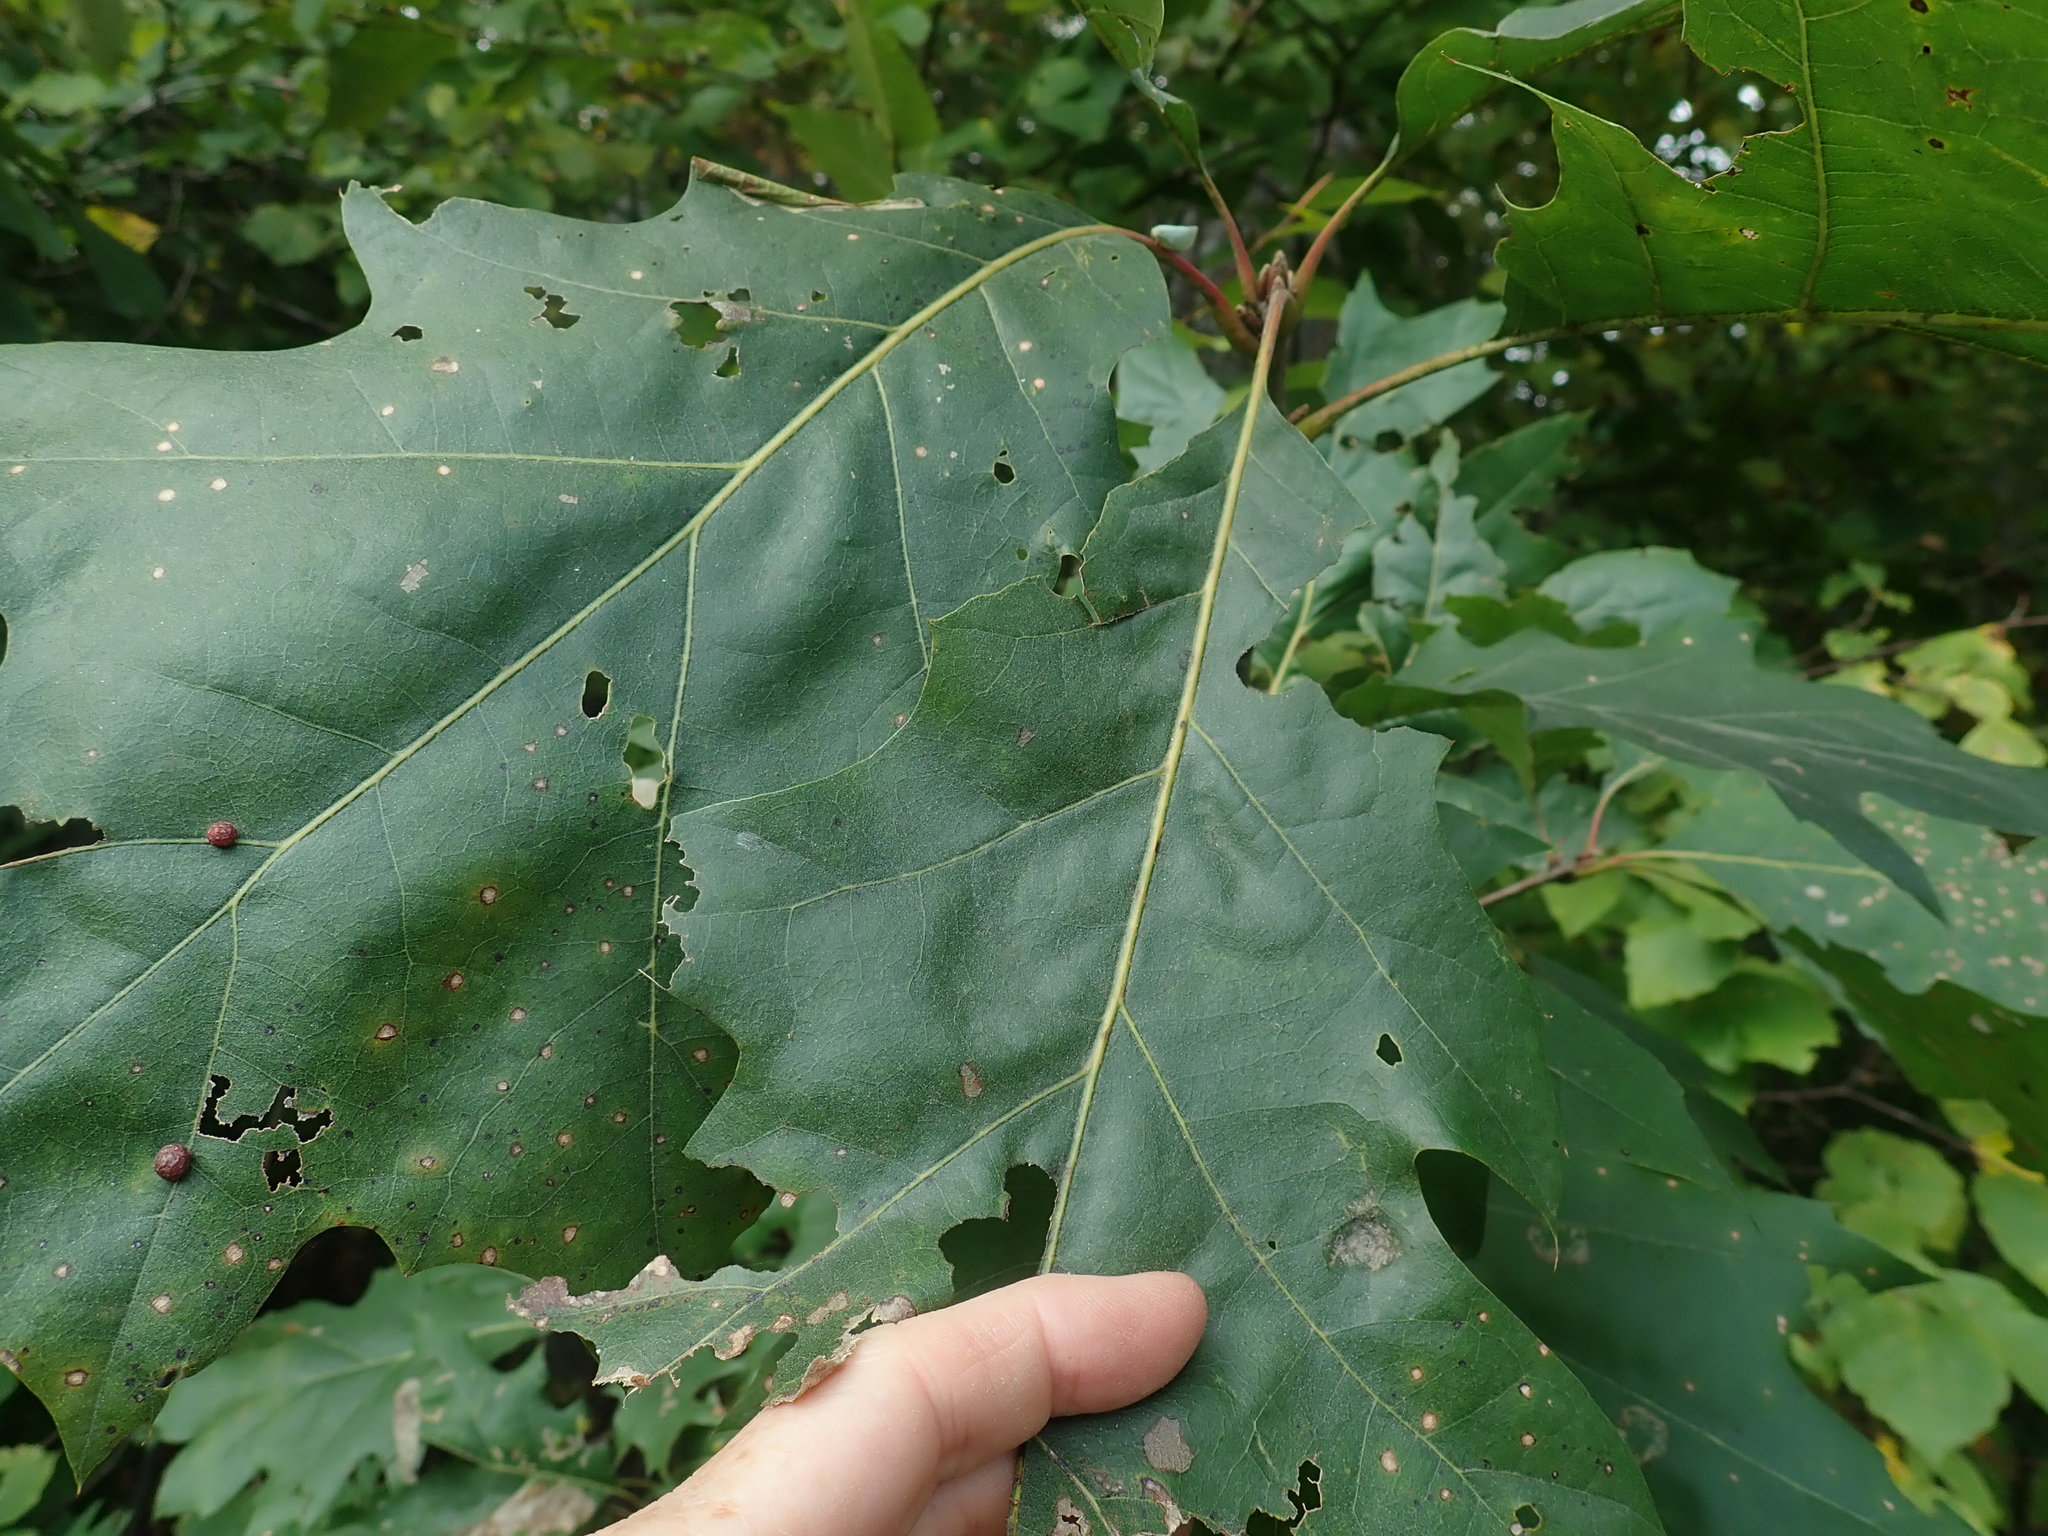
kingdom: Fungi
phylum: Ascomycota
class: Taphrinomycetes
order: Taphrinales
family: Taphrinaceae
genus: Taphrina
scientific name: Taphrina caerulescens
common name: Oak leaf blister
